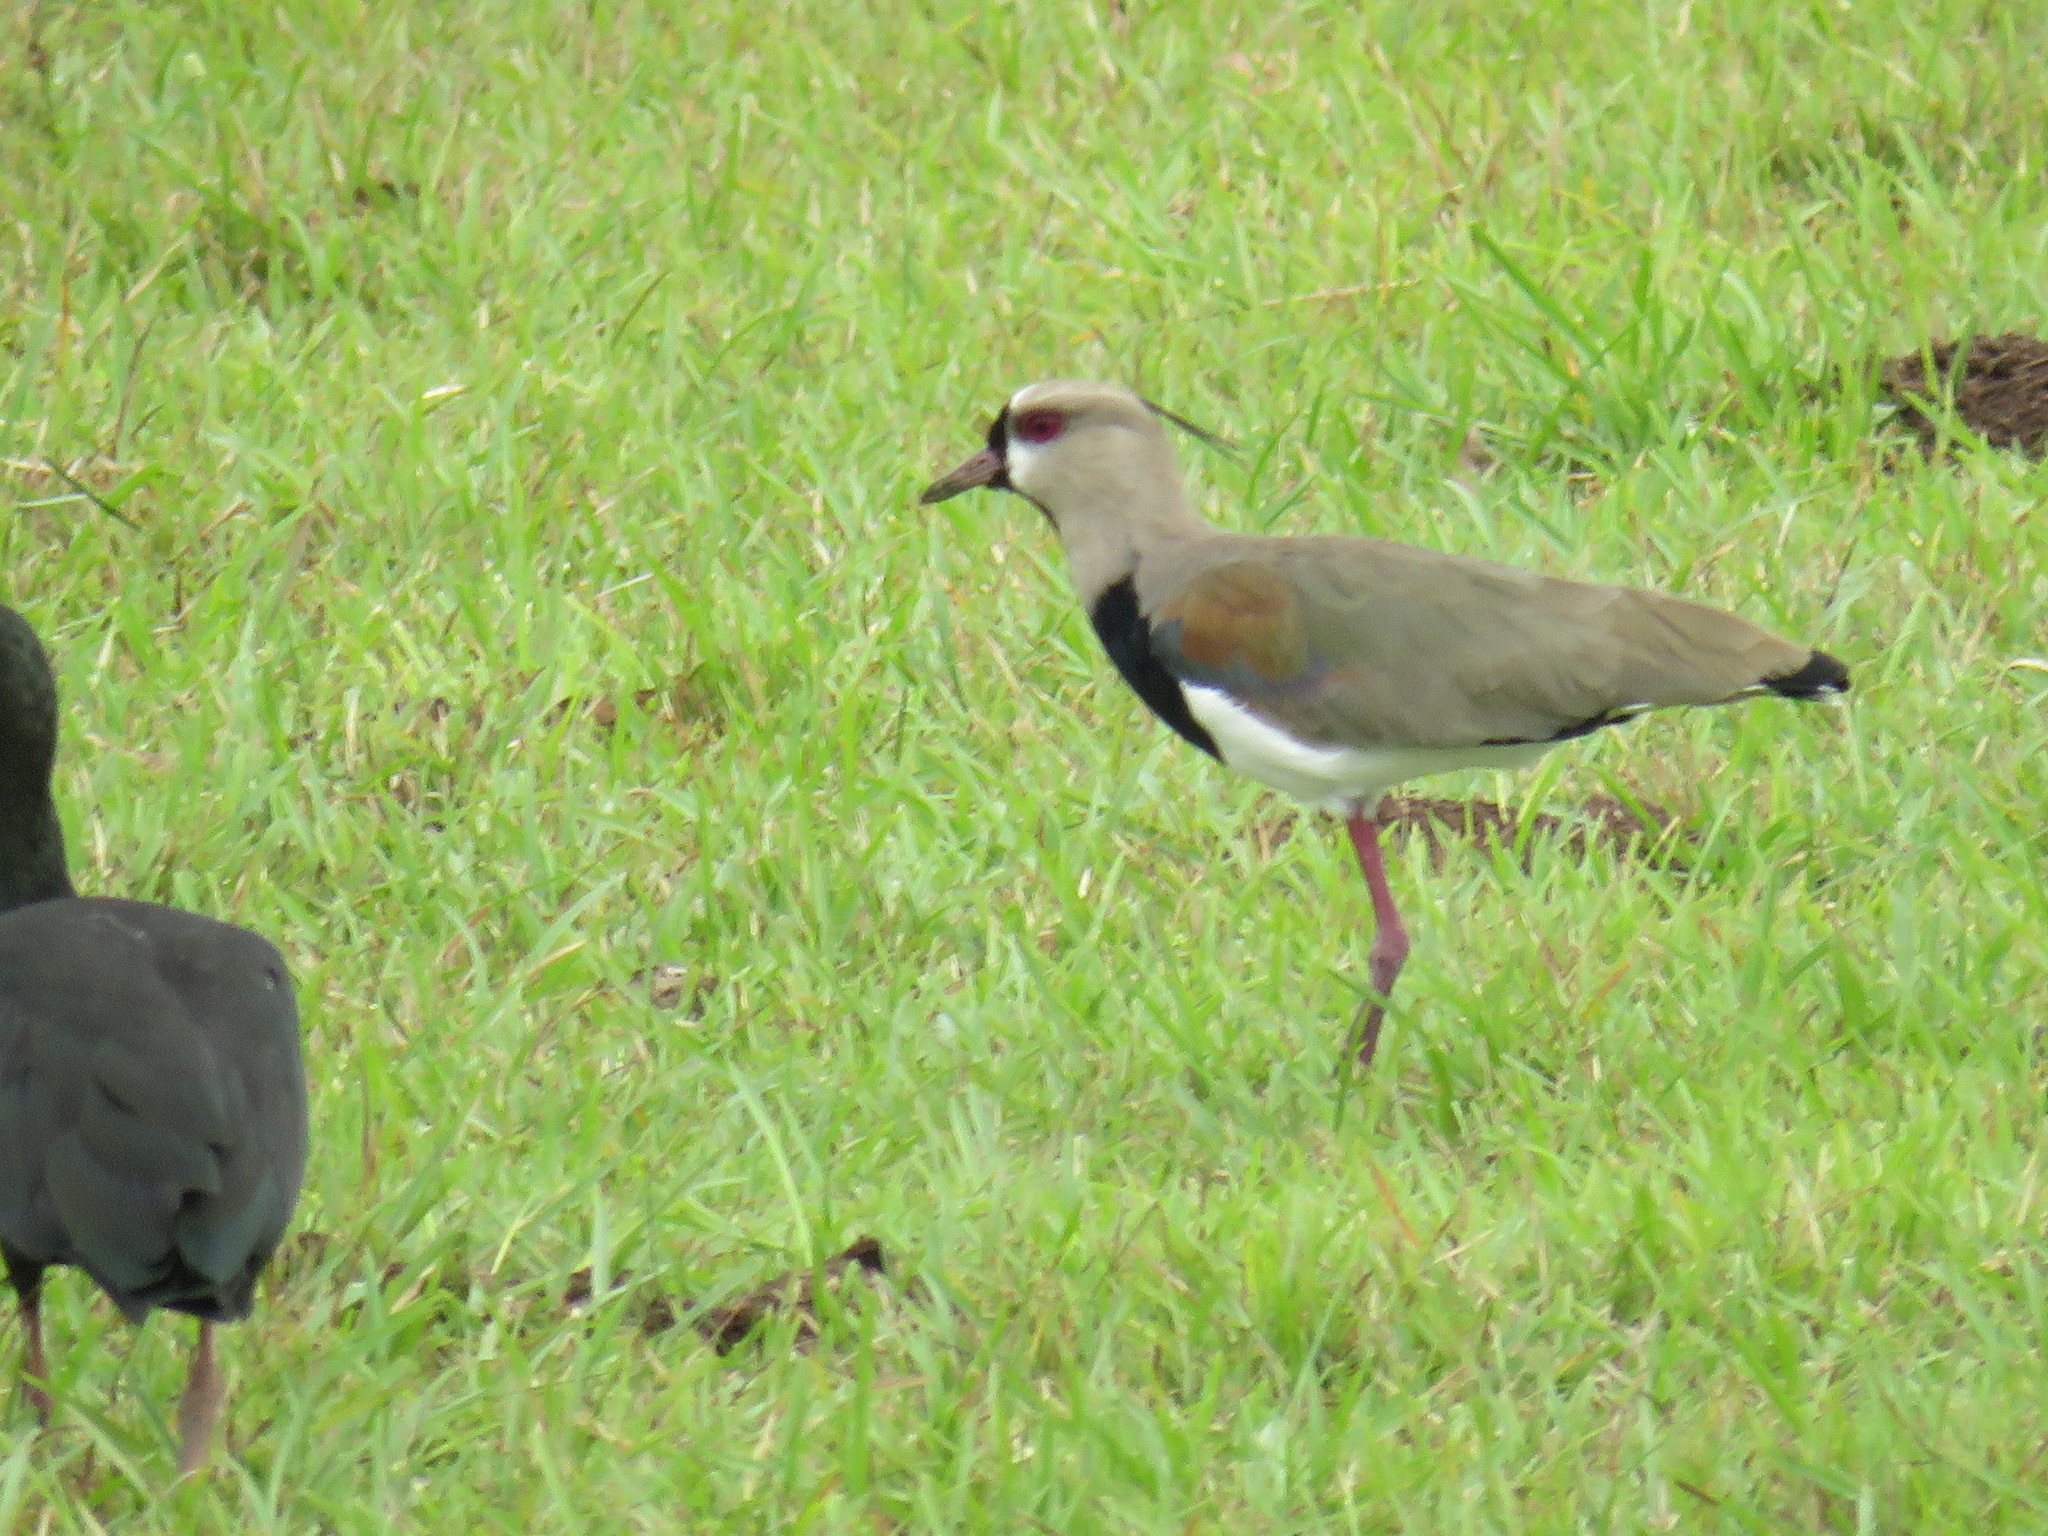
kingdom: Animalia
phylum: Chordata
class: Aves
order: Charadriiformes
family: Charadriidae
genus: Vanellus
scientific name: Vanellus chilensis
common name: Southern lapwing
